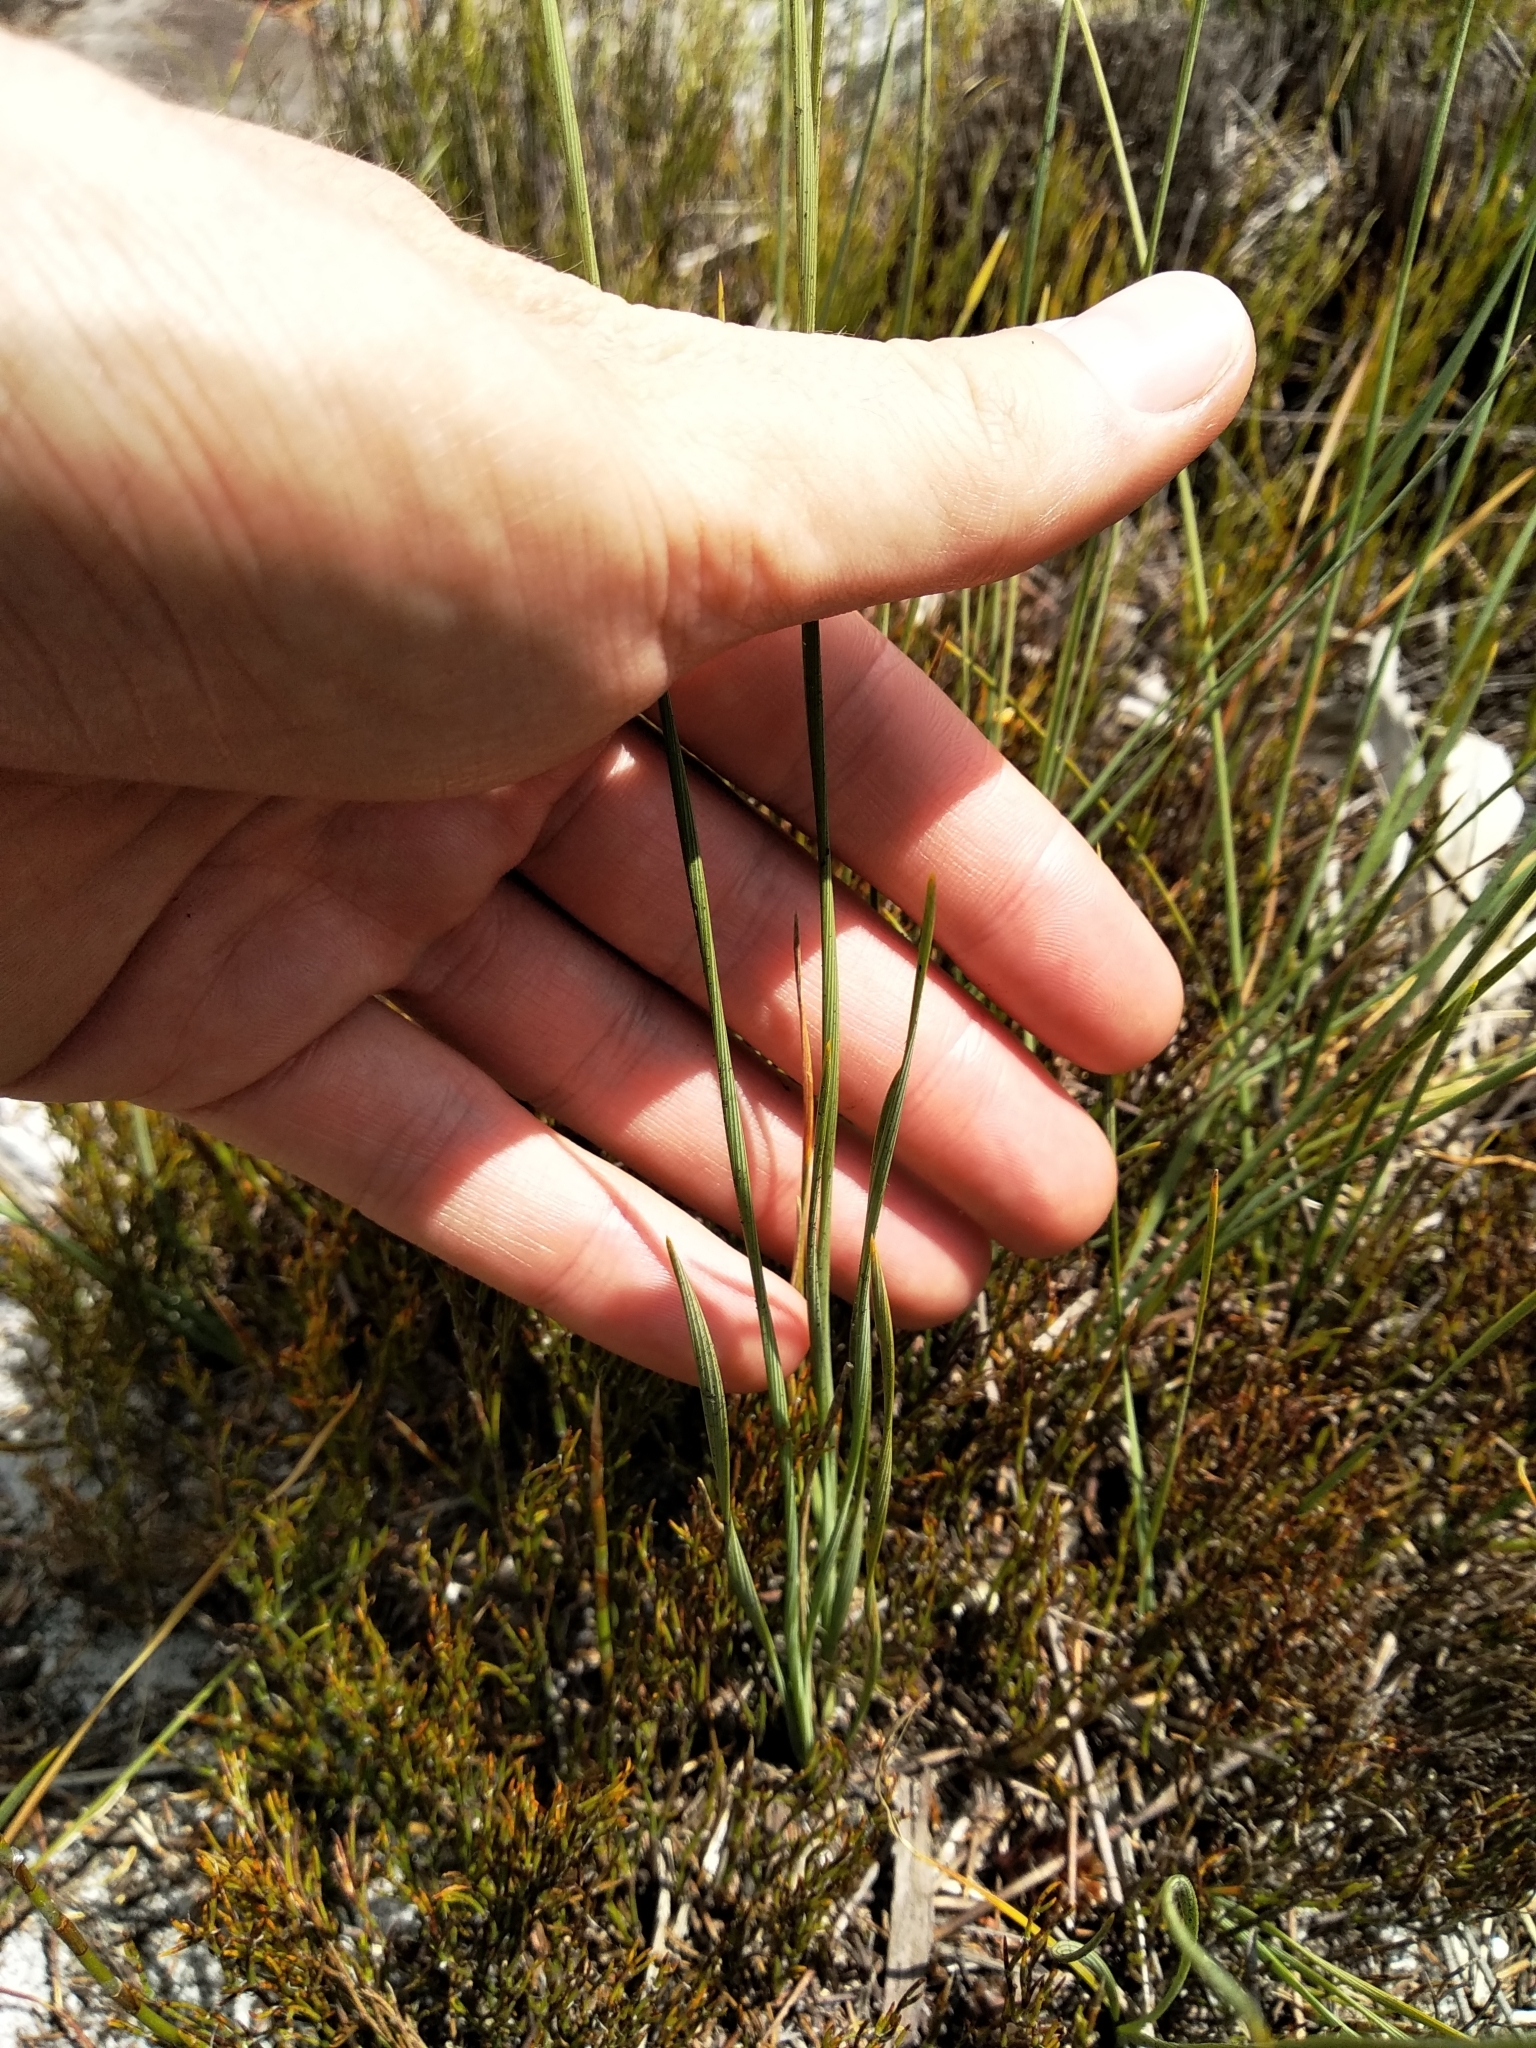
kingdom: Plantae
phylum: Tracheophyta
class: Liliopsida
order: Asparagales
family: Iridaceae
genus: Bobartia
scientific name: Bobartia filiformis
